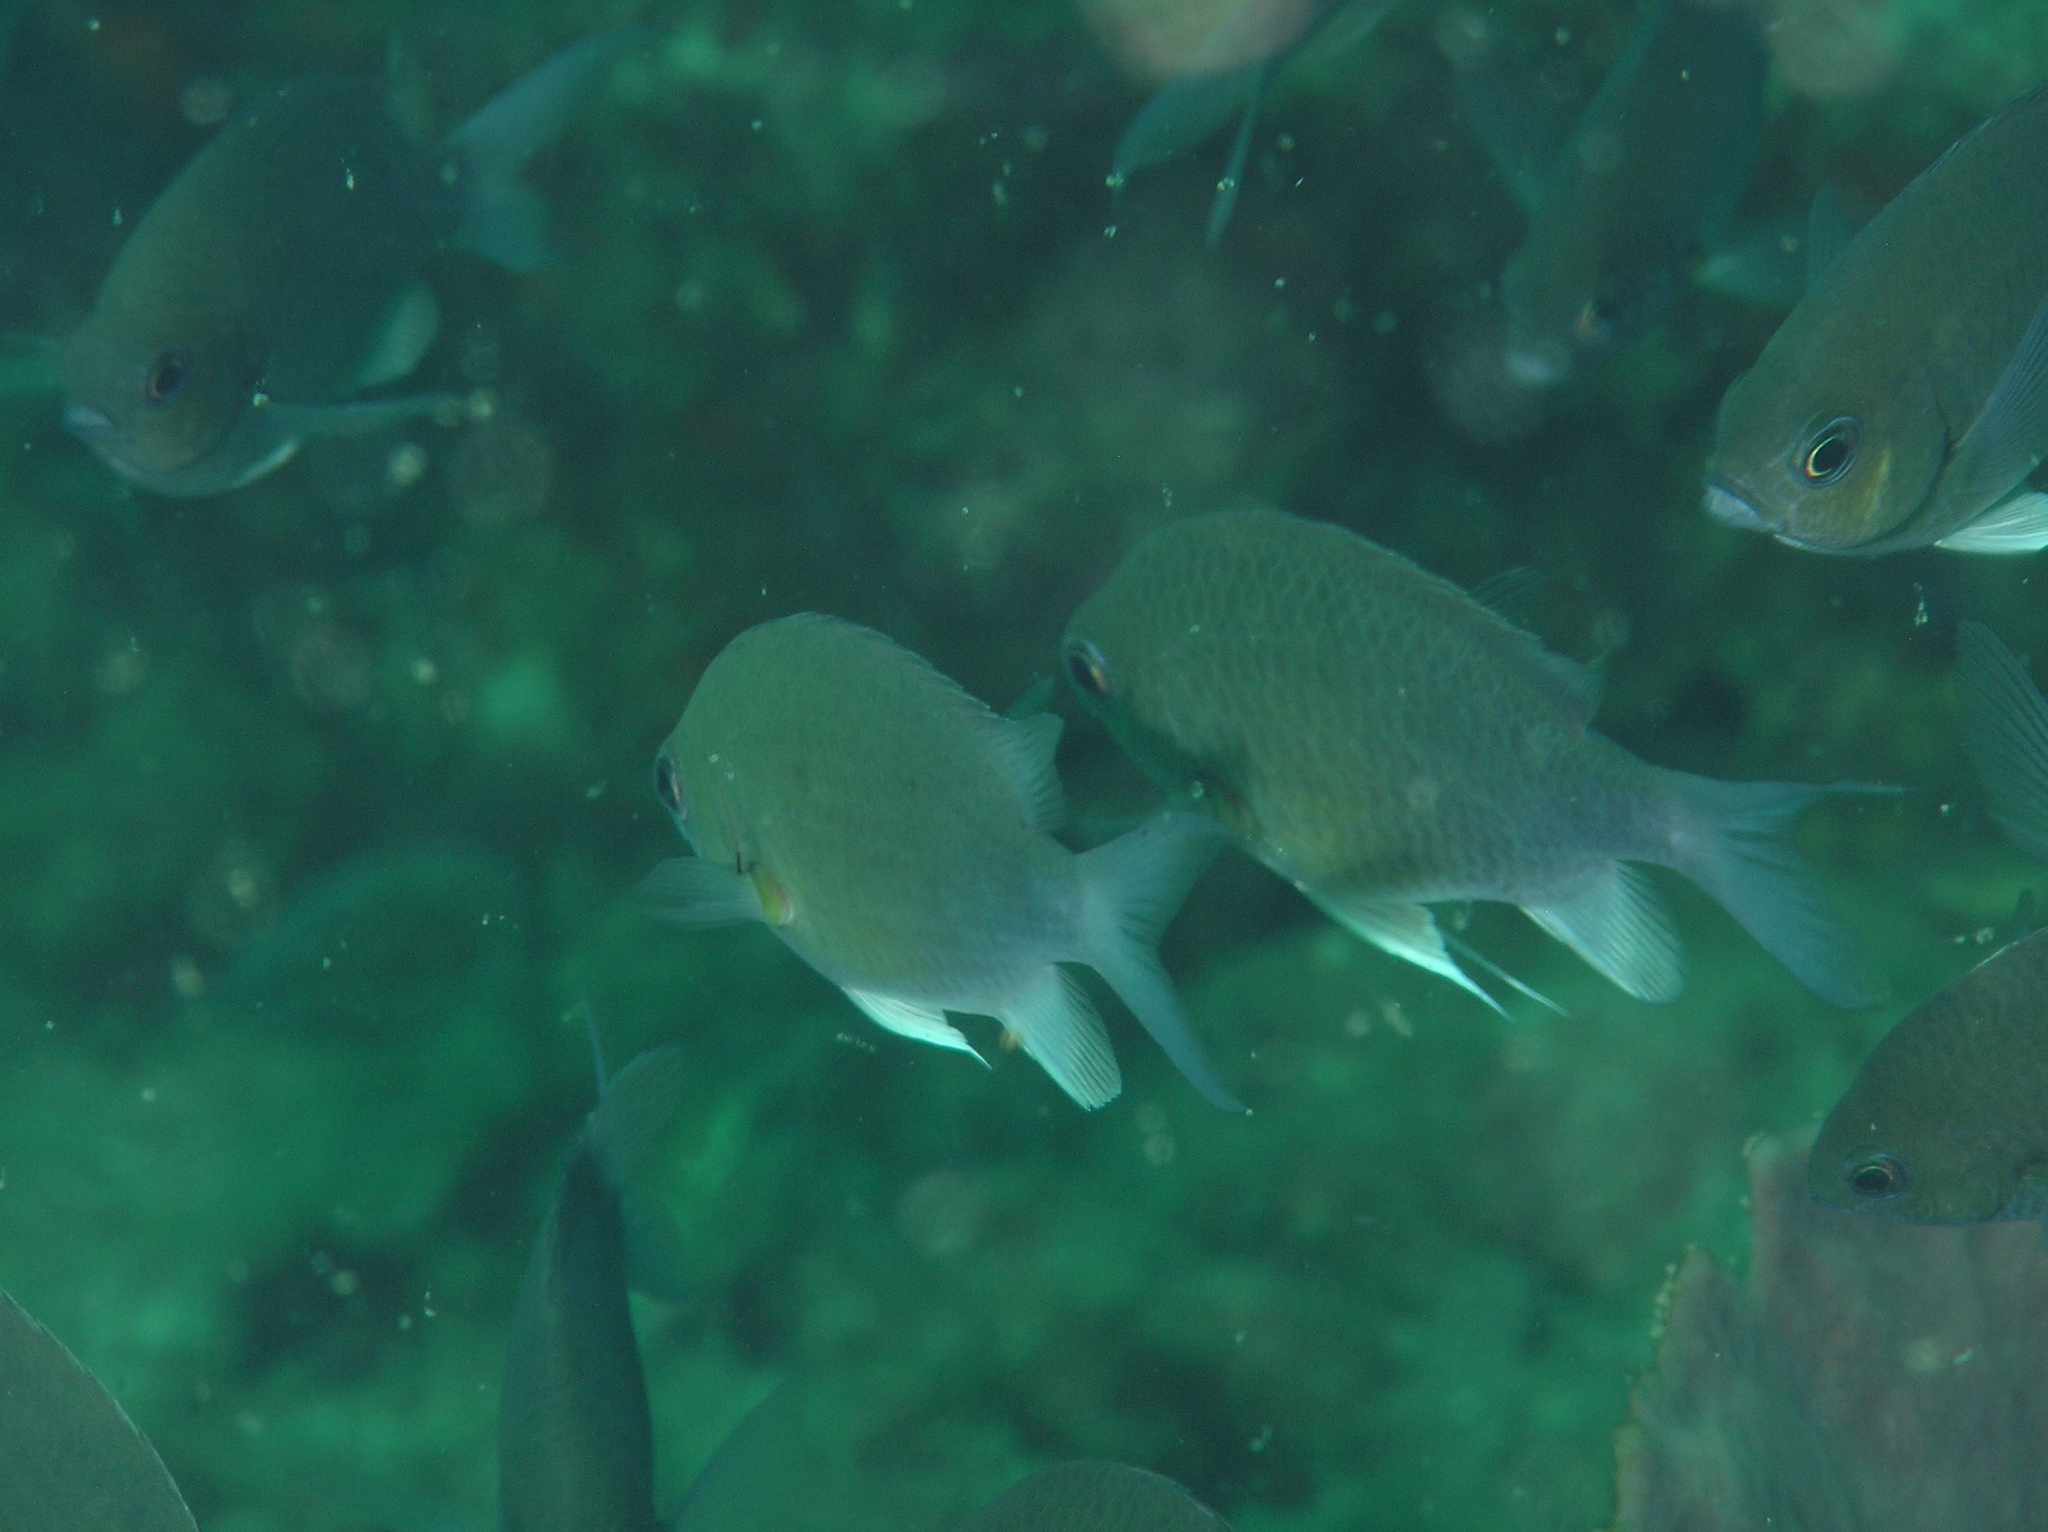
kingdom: Animalia
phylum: Chordata
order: Perciformes
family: Pomacentridae
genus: Chromis
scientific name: Chromis cinerascens
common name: Green chromis
